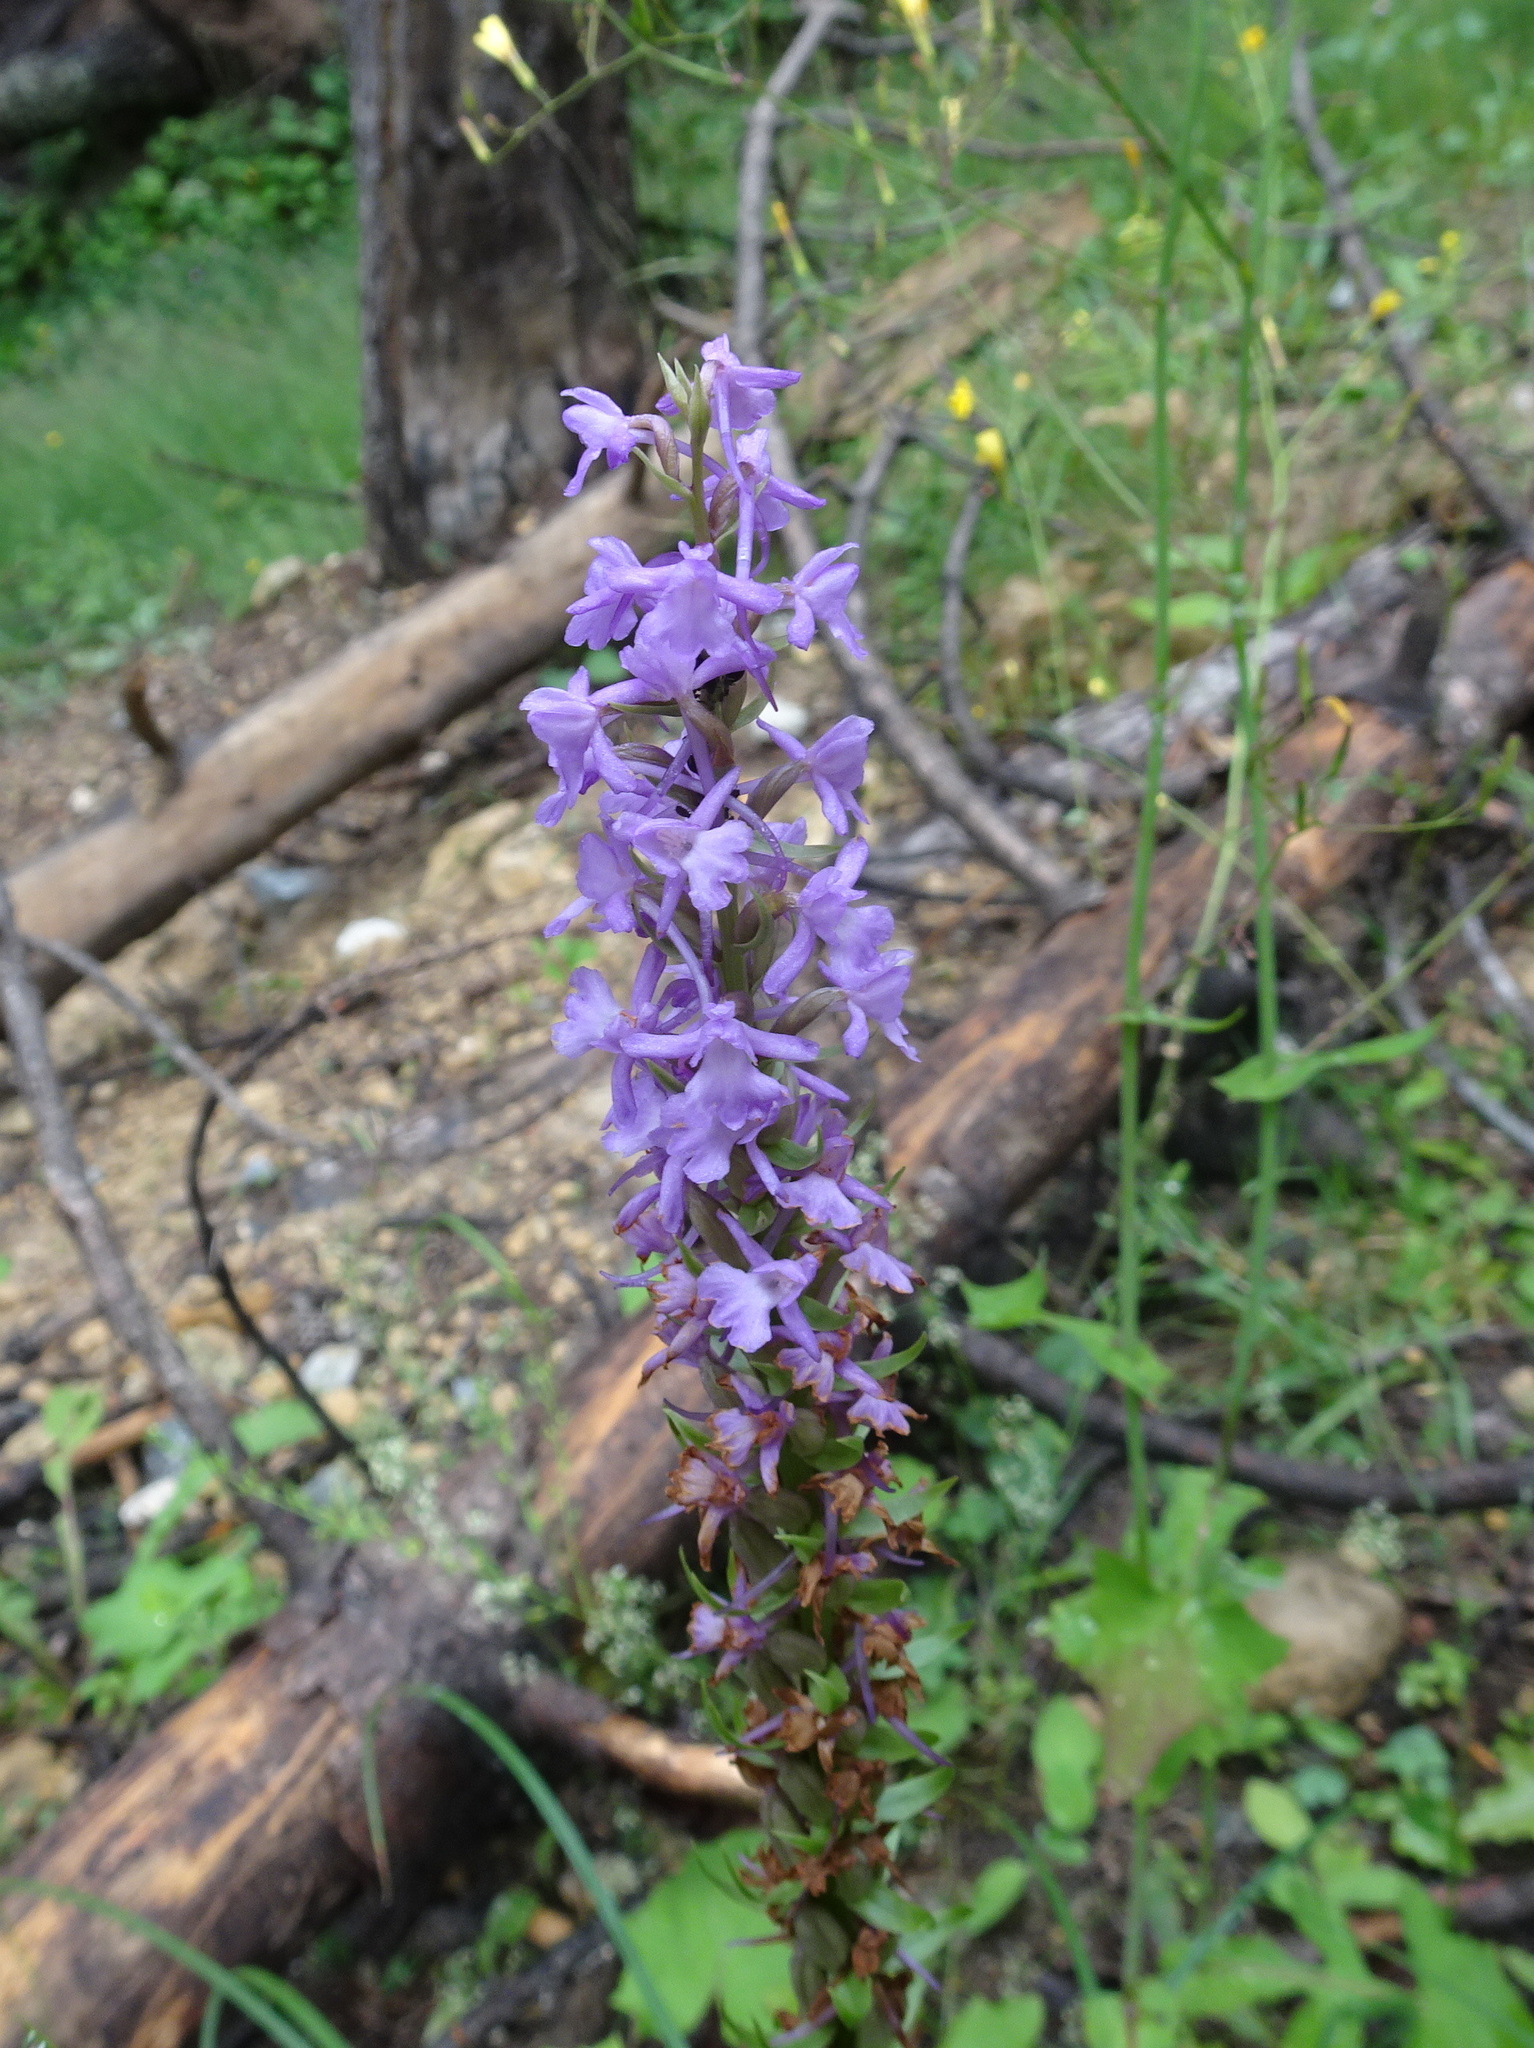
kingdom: Plantae
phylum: Tracheophyta
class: Liliopsida
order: Asparagales
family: Orchidaceae
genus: Gymnadenia
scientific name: Gymnadenia conopsea
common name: Fragrant orchid
